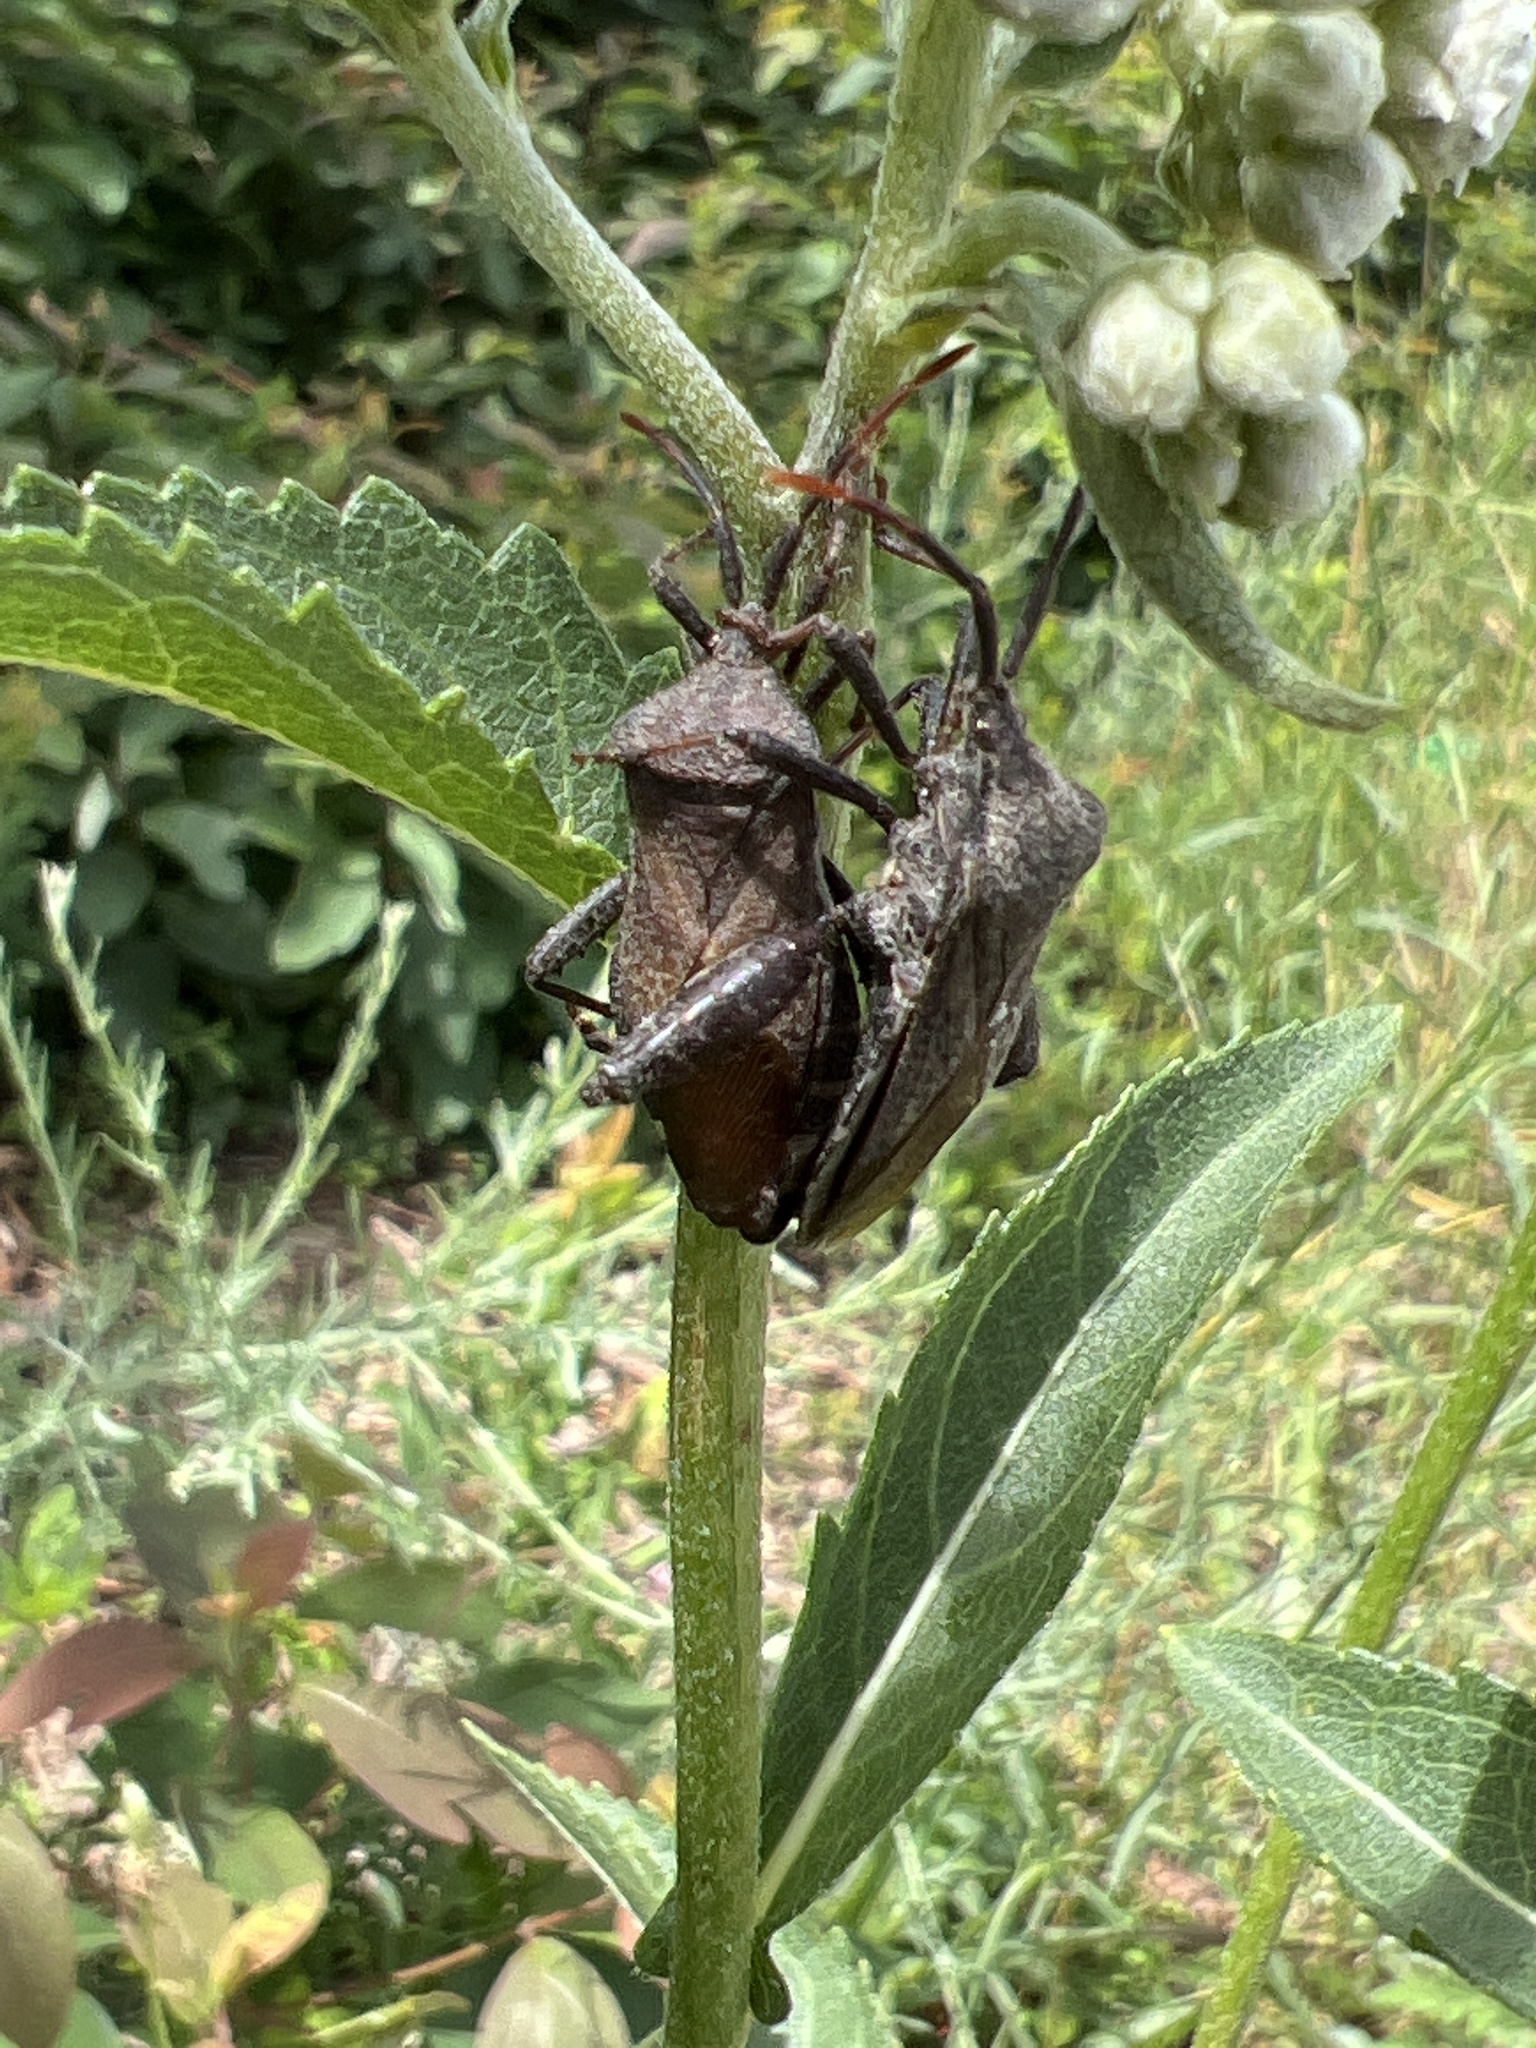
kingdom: Animalia
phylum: Arthropoda
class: Insecta
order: Hemiptera
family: Coreidae
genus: Piezogaster
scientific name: Piezogaster calcarator
